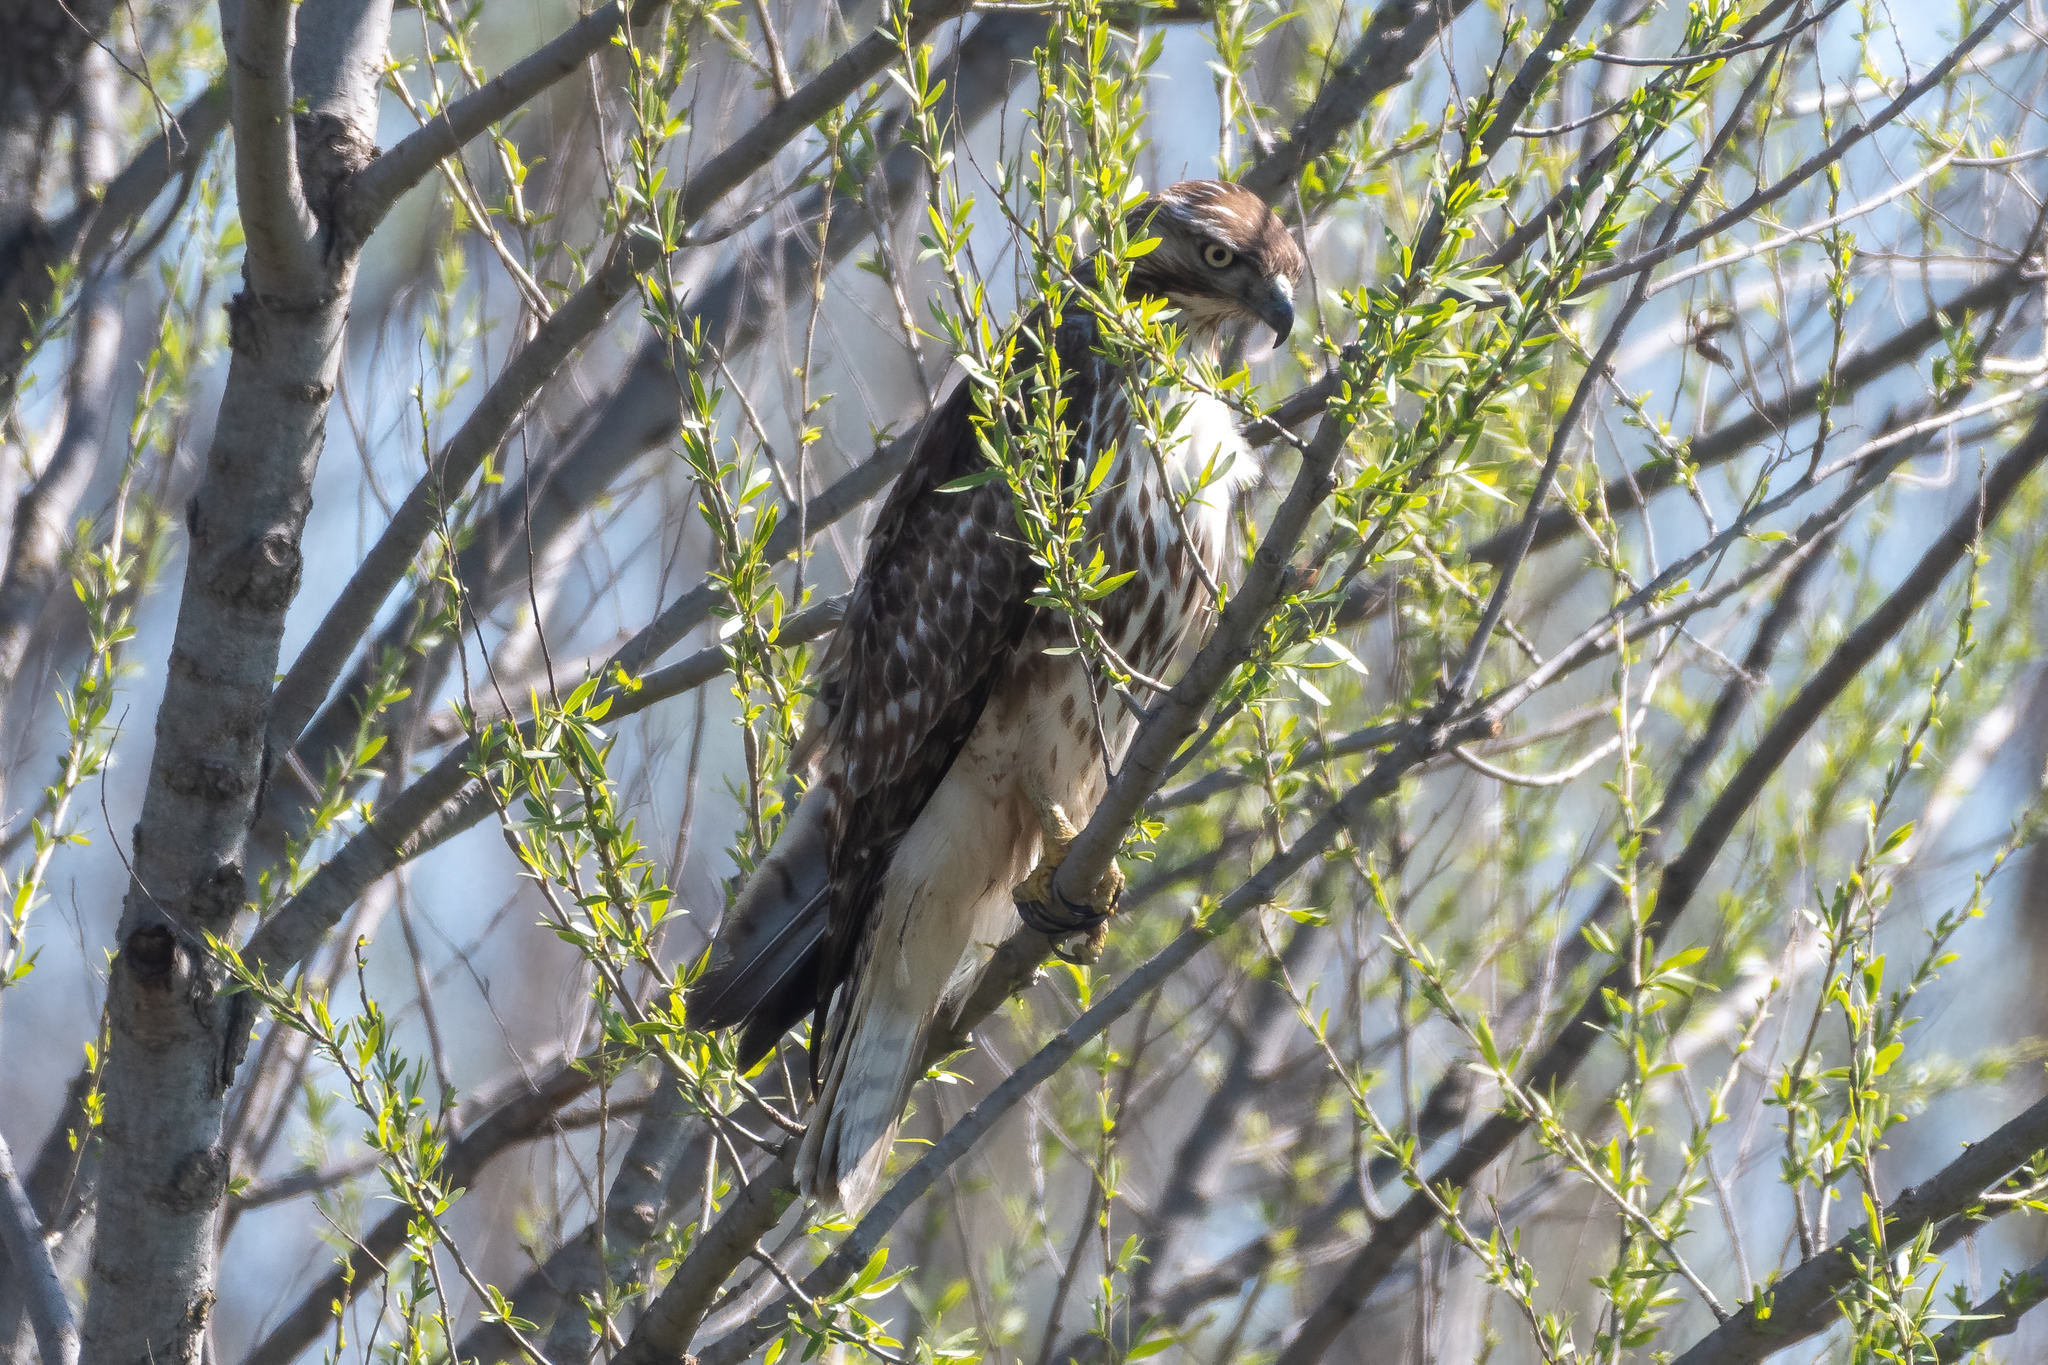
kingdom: Animalia
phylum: Chordata
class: Aves
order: Accipitriformes
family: Accipitridae
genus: Buteo
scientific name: Buteo jamaicensis
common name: Red-tailed hawk
